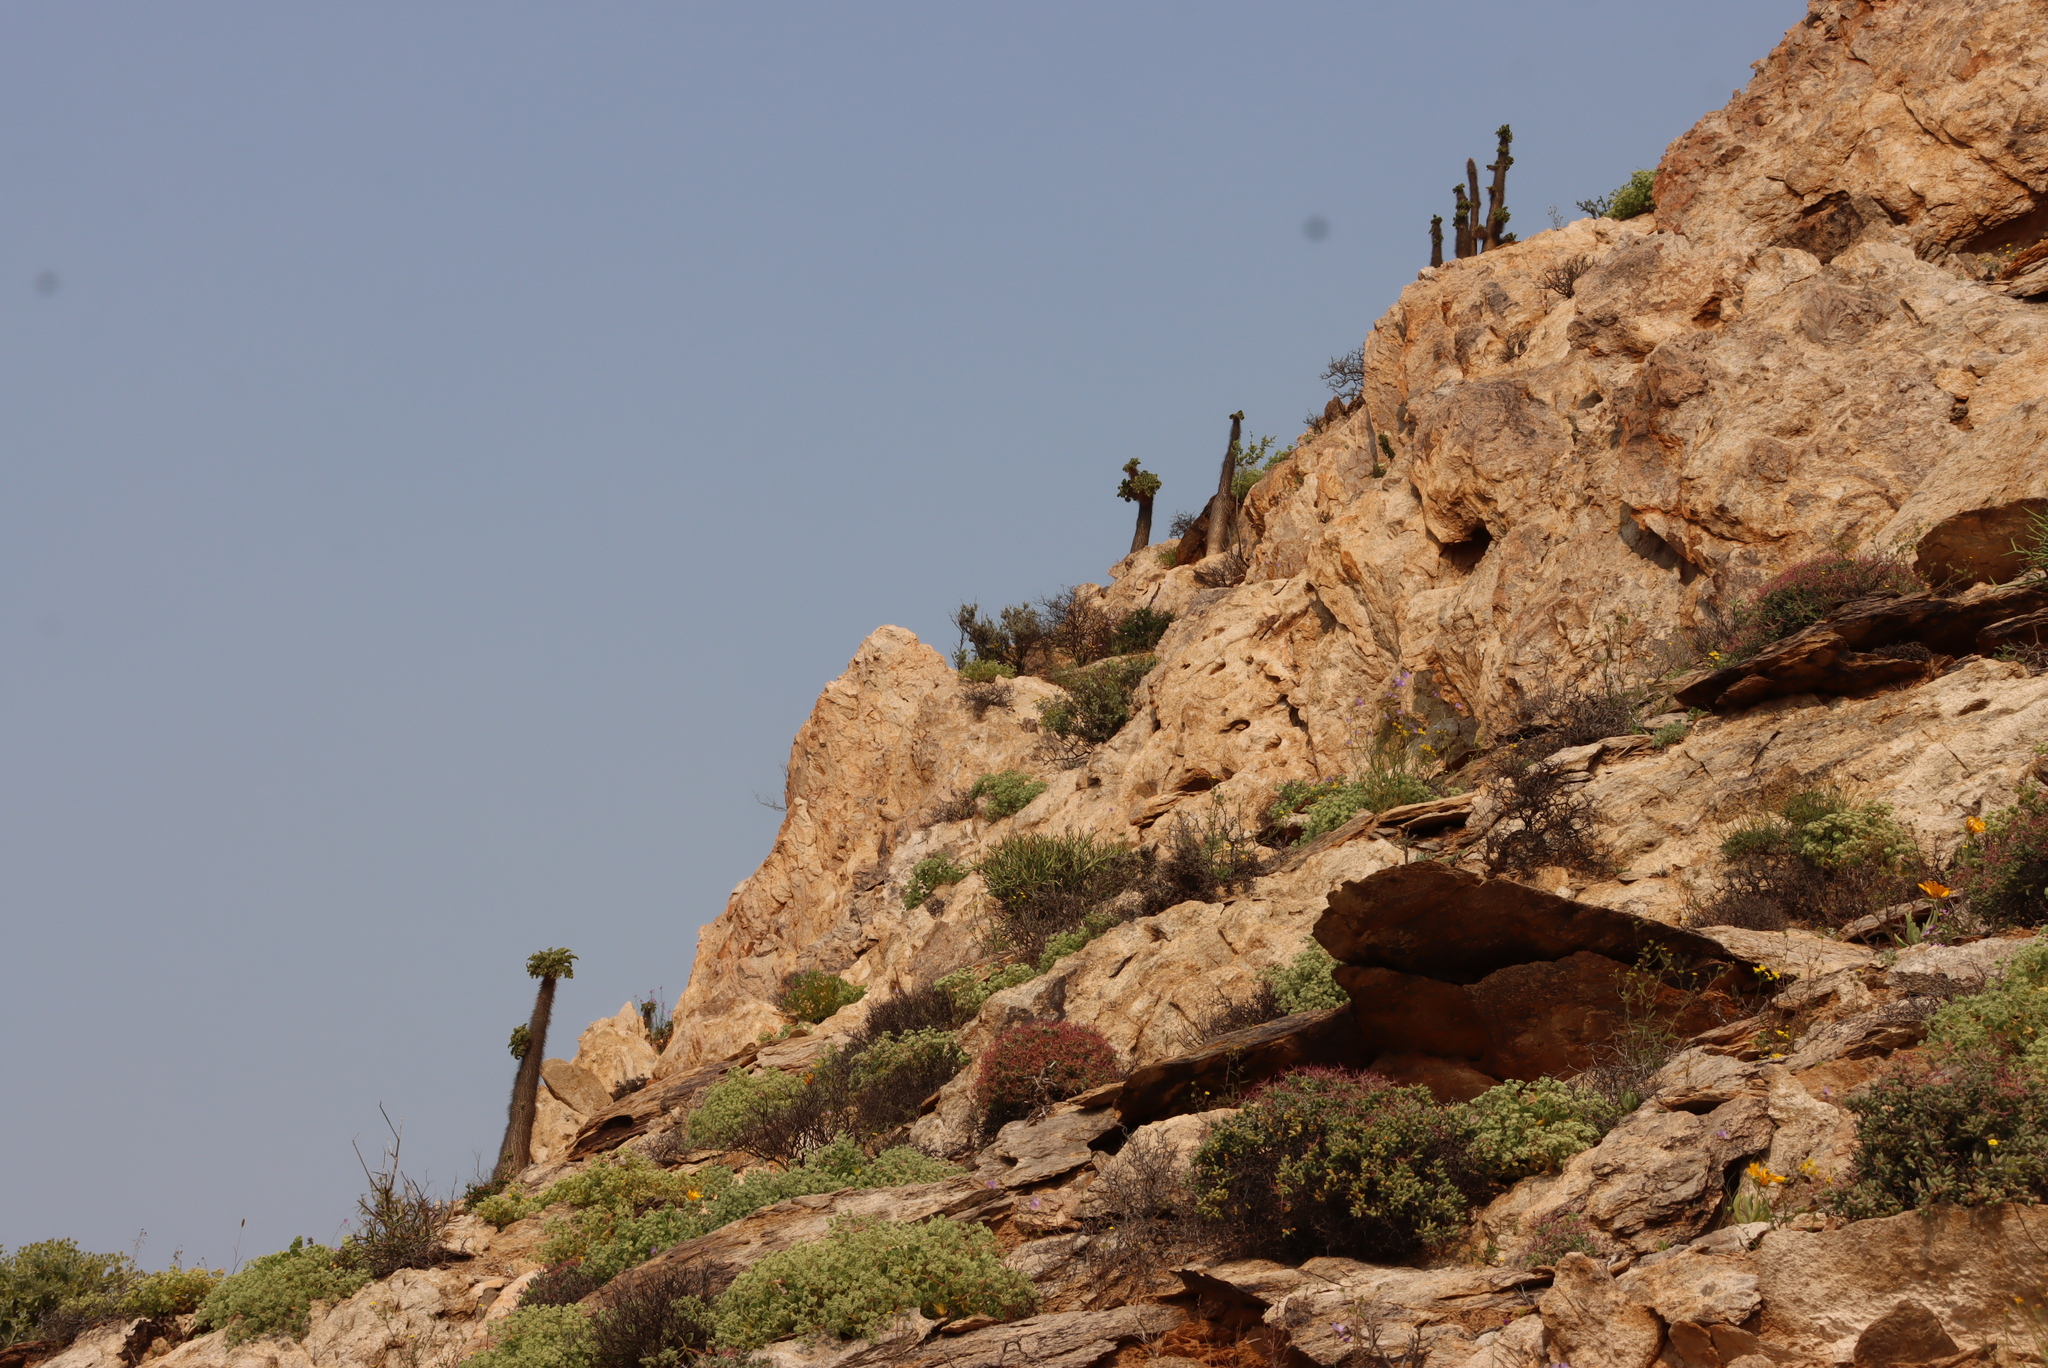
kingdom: Plantae
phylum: Tracheophyta
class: Magnoliopsida
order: Gentianales
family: Apocynaceae
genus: Pachypodium
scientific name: Pachypodium namaquanum
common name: Elephant's trunk
